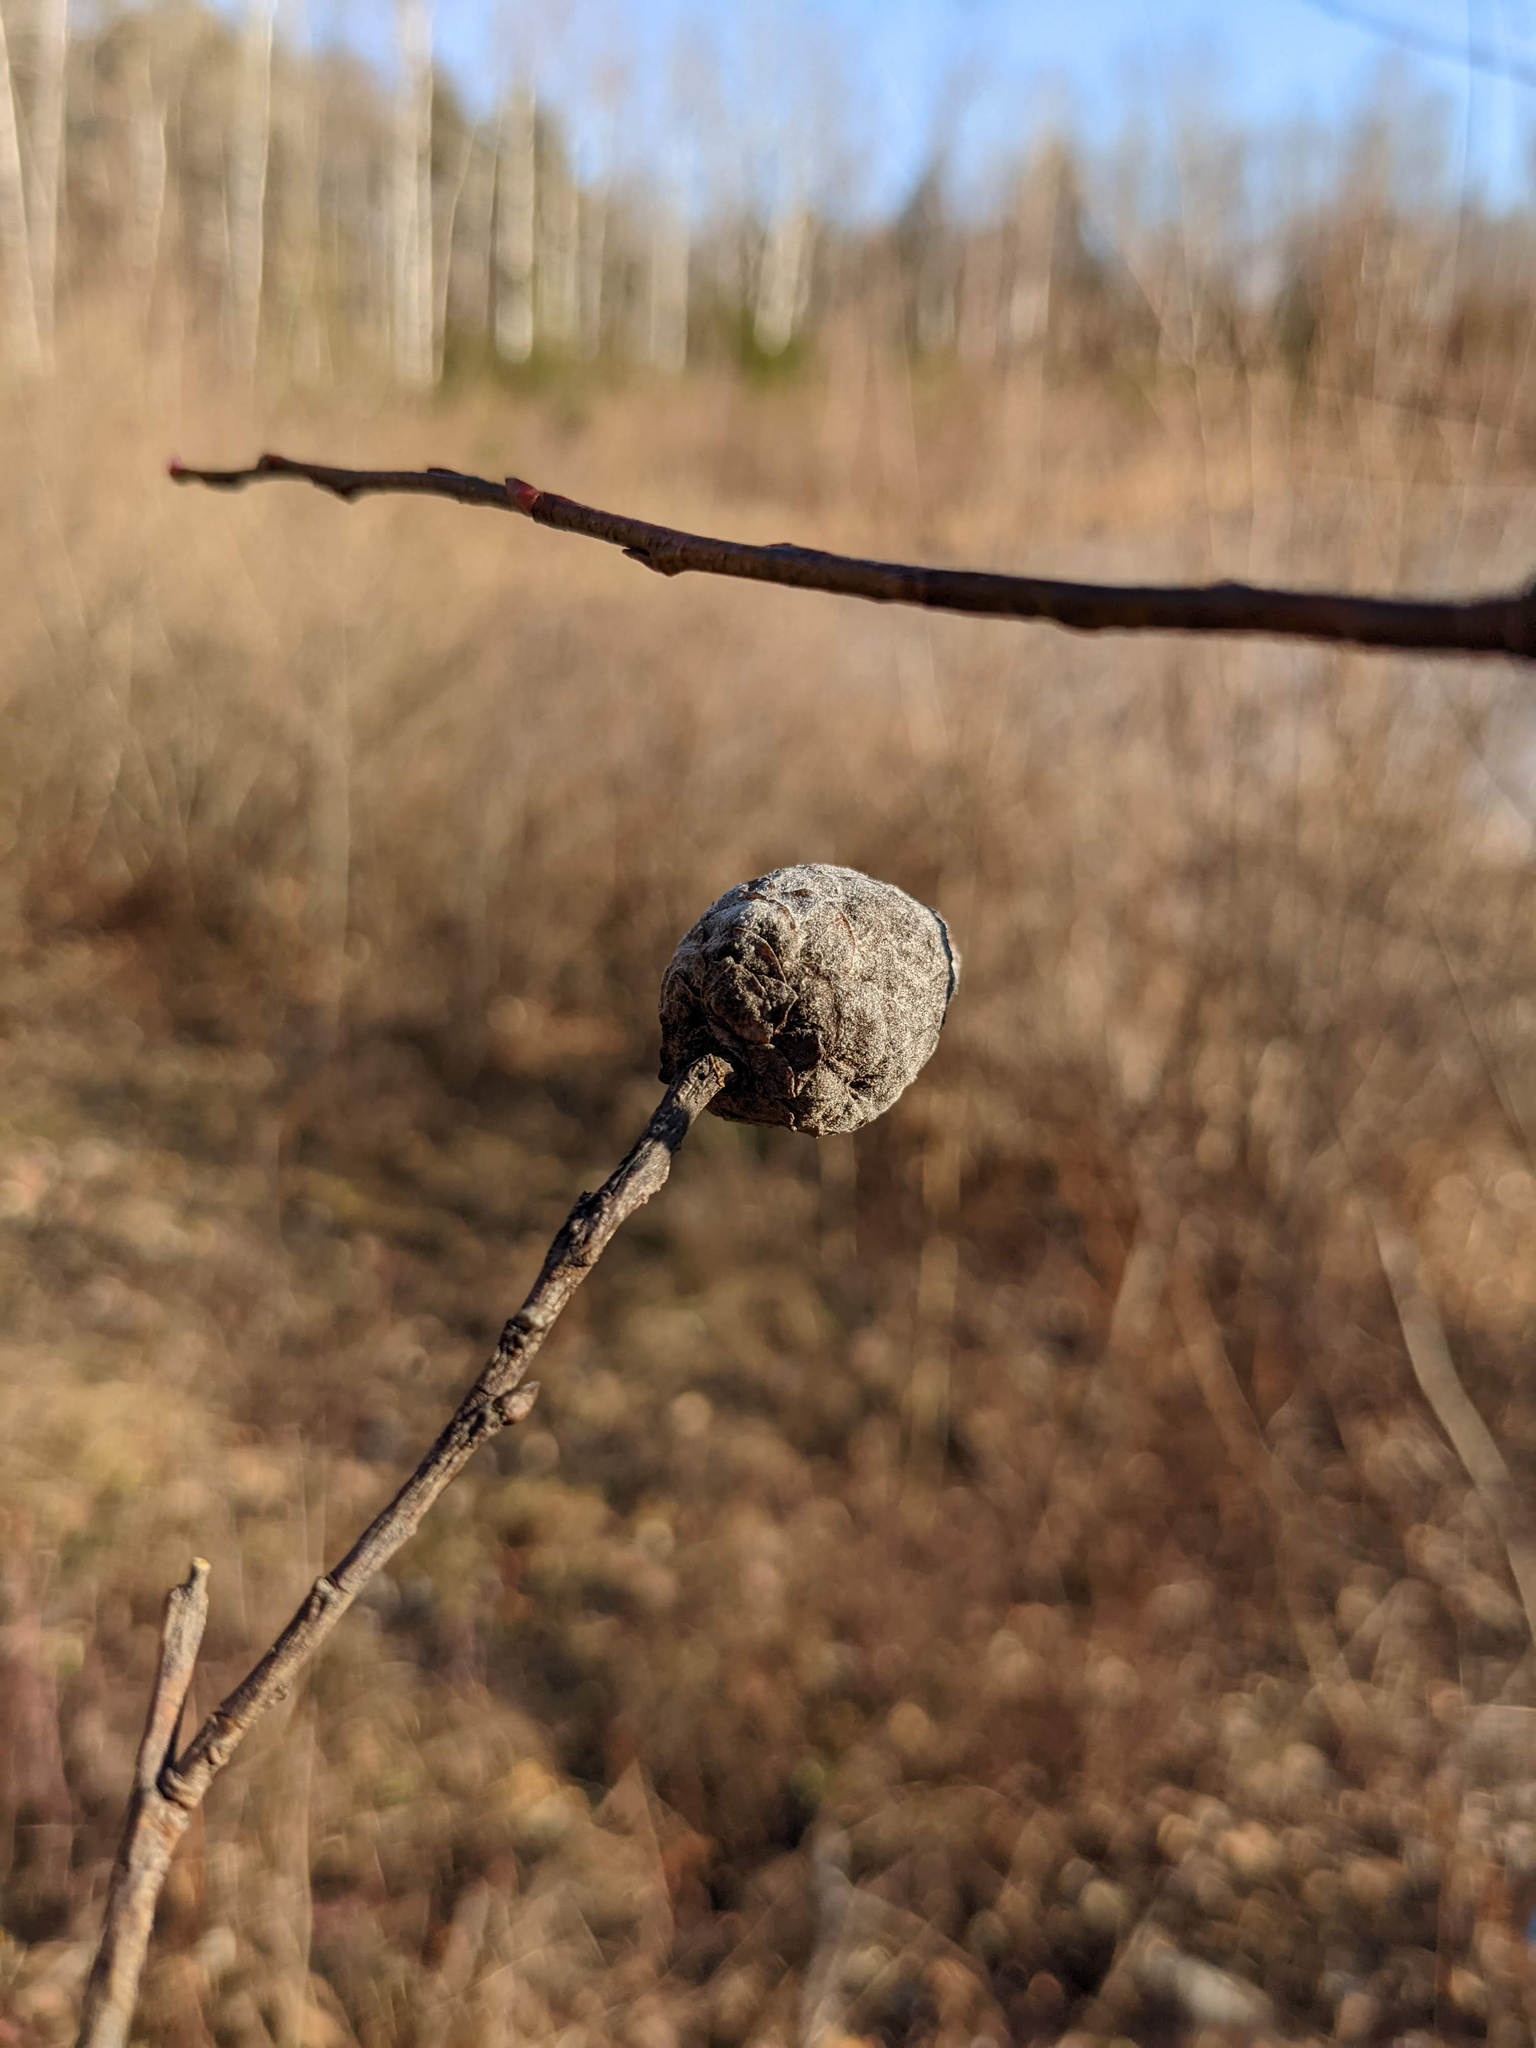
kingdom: Animalia
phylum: Arthropoda
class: Insecta
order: Diptera
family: Cecidomyiidae
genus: Rabdophaga
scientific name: Rabdophaga strobiloides
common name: Willow pinecone gall midge
